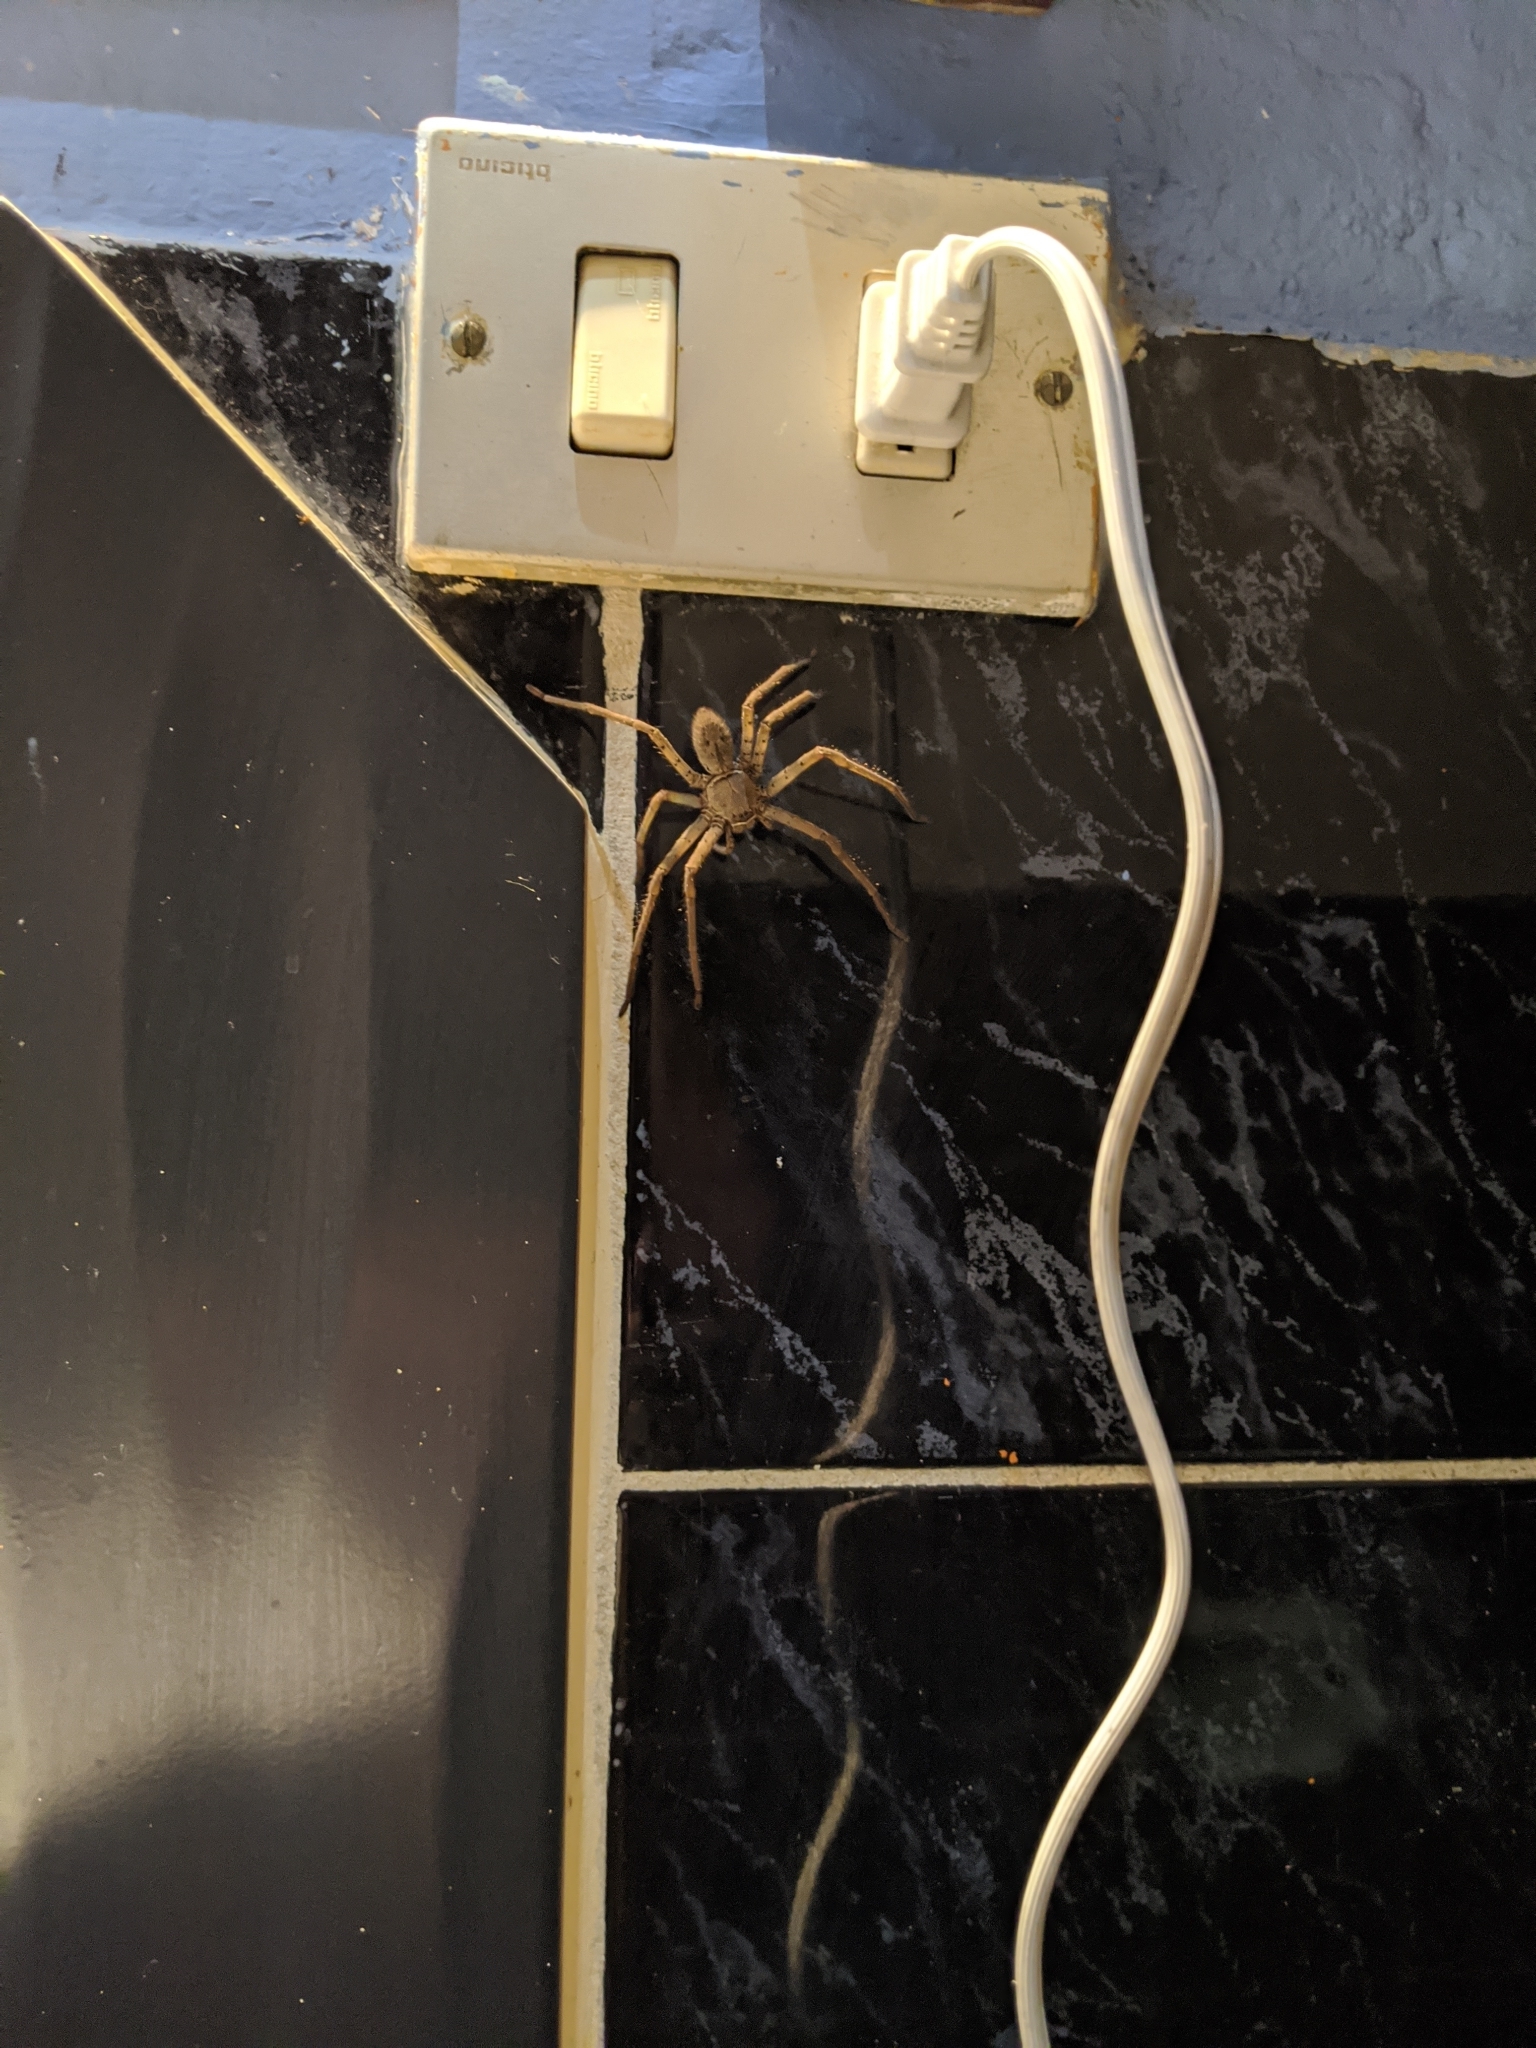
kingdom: Animalia
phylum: Arthropoda
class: Arachnida
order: Araneae
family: Sparassidae
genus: Heteropoda
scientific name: Heteropoda venatoria
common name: Huntsman spider
